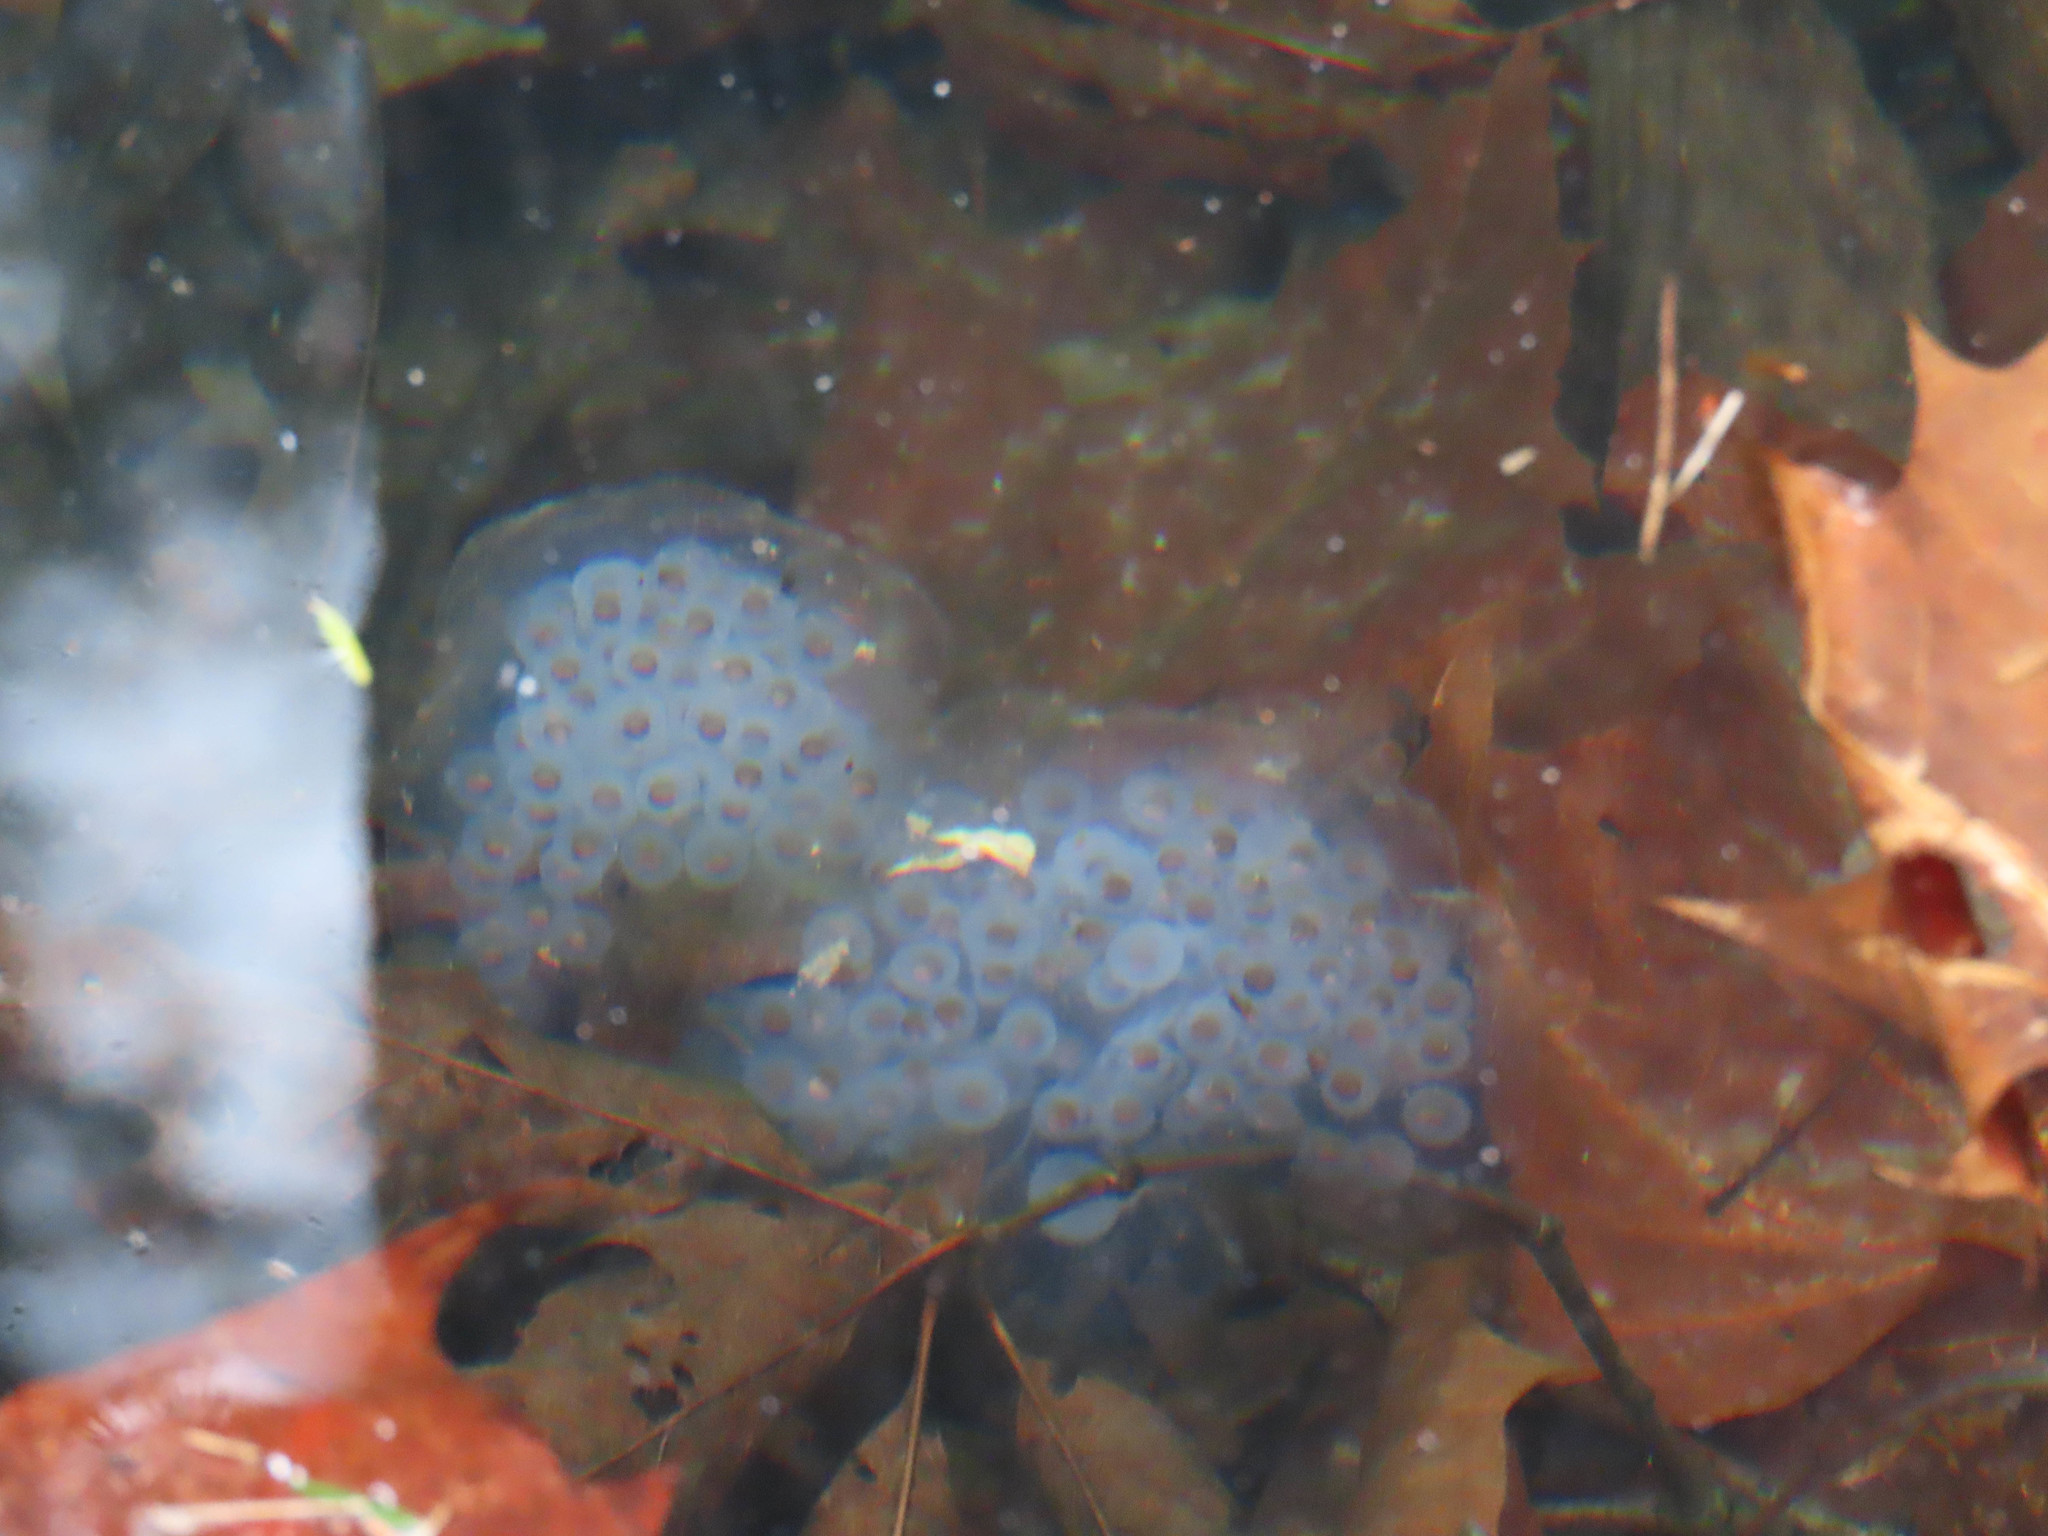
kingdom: Animalia
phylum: Chordata
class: Amphibia
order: Caudata
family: Ambystomatidae
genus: Ambystoma
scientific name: Ambystoma maculatum
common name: Spotted salamander
